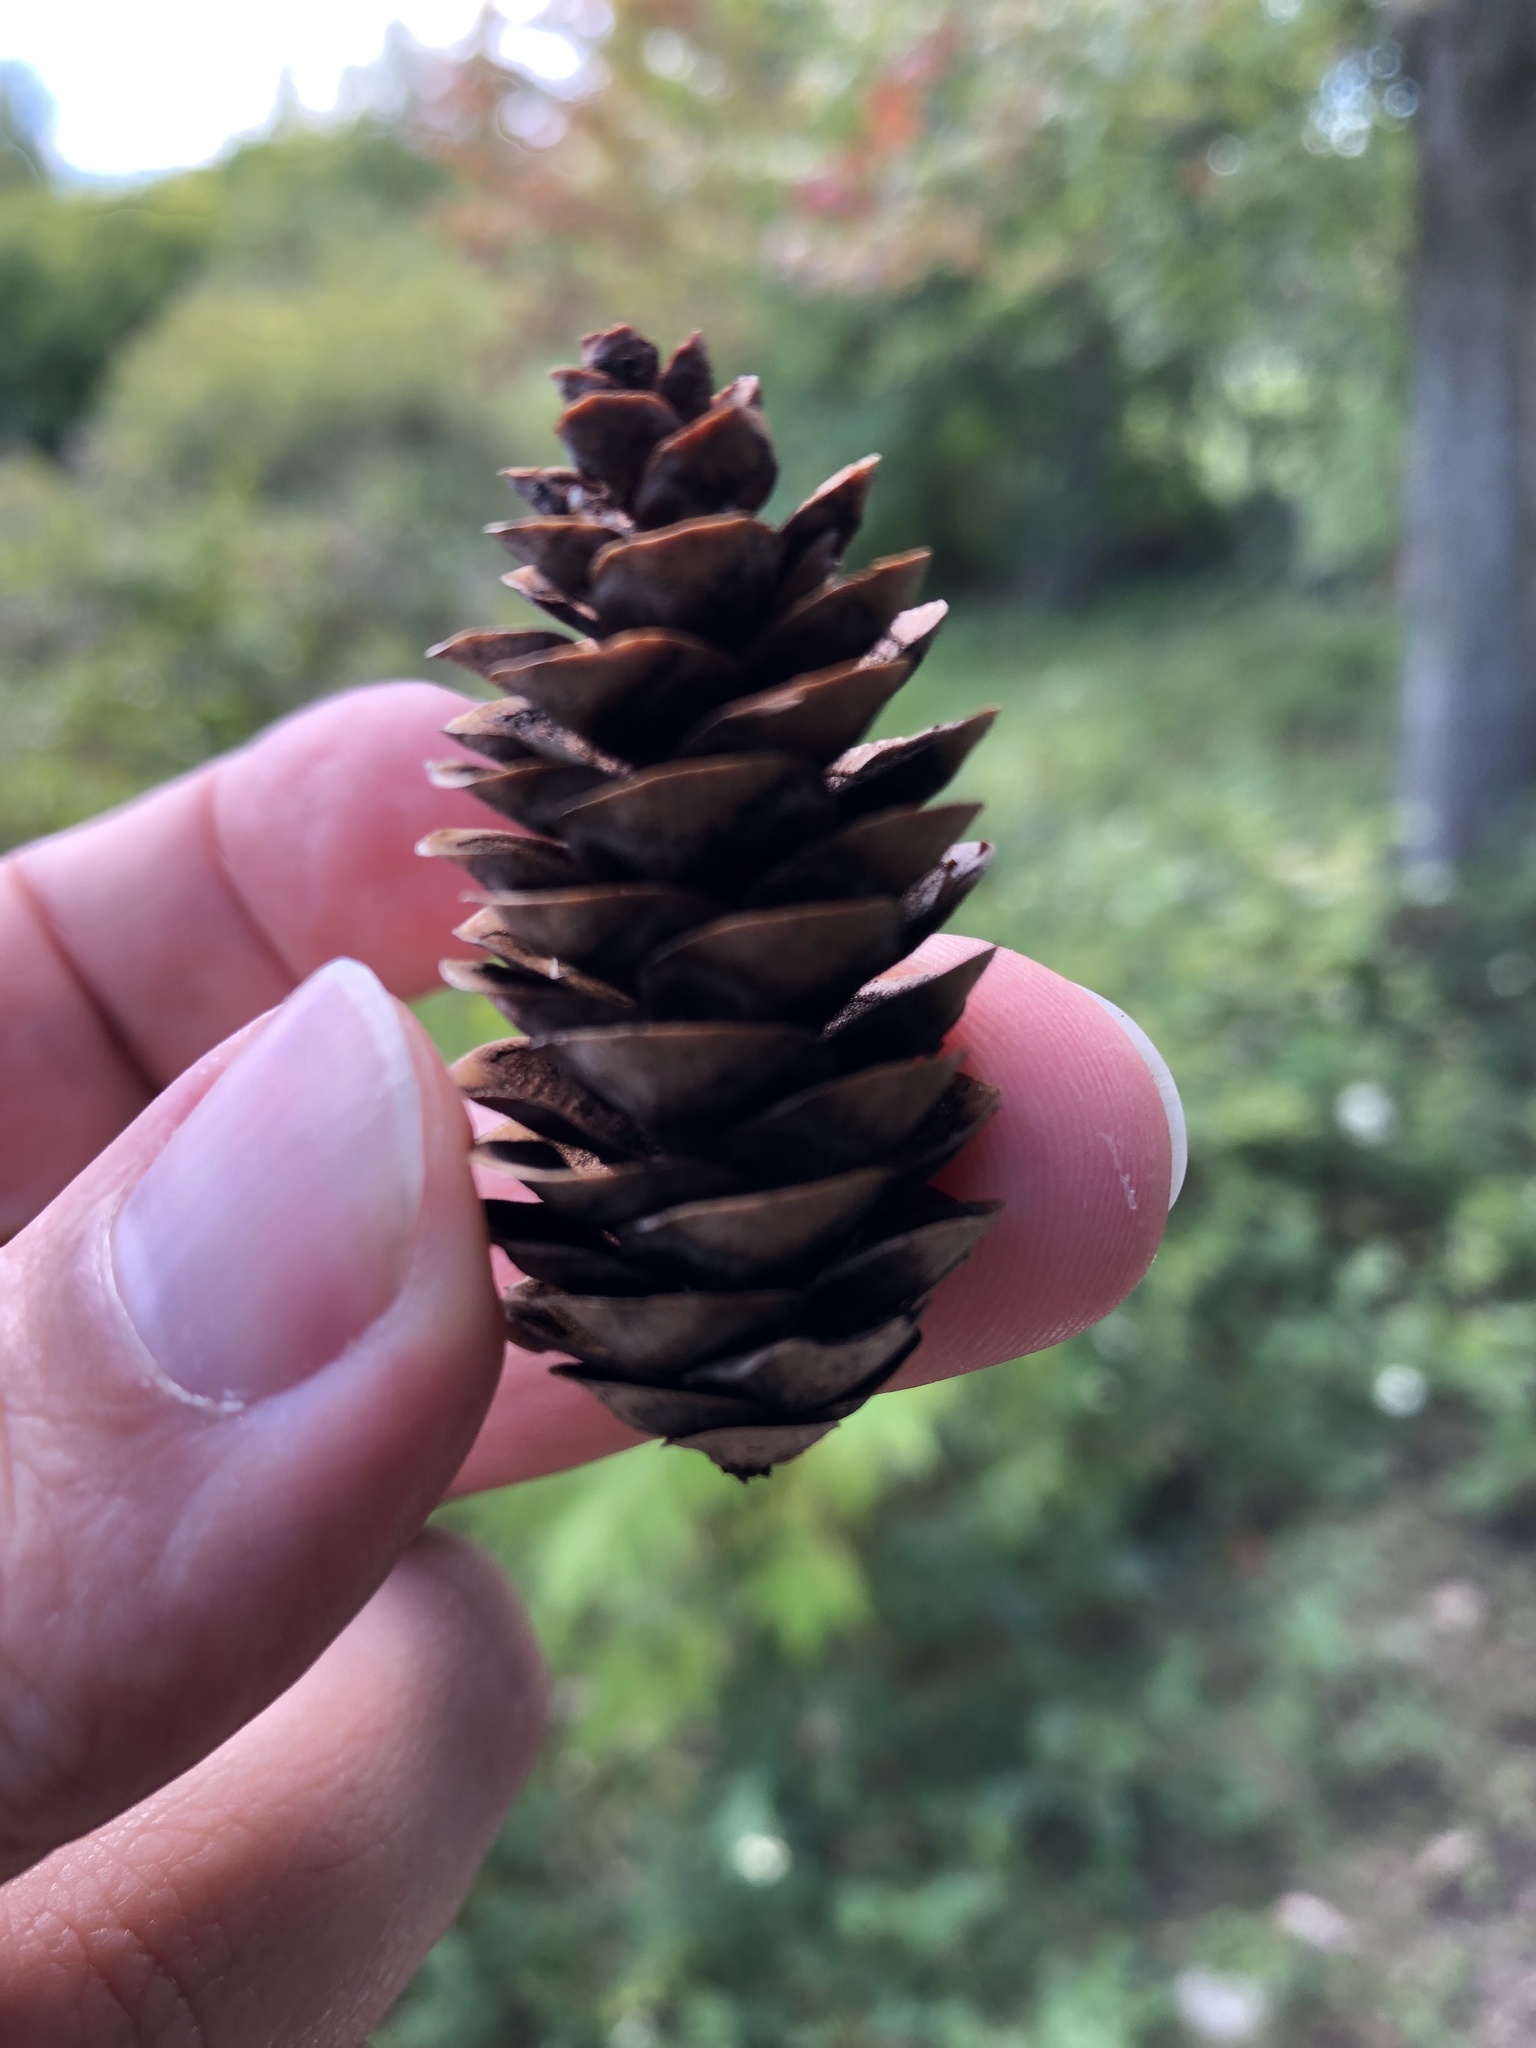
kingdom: Plantae
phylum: Tracheophyta
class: Pinopsida
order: Pinales
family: Pinaceae
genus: Picea
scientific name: Picea glauca
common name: White spruce
